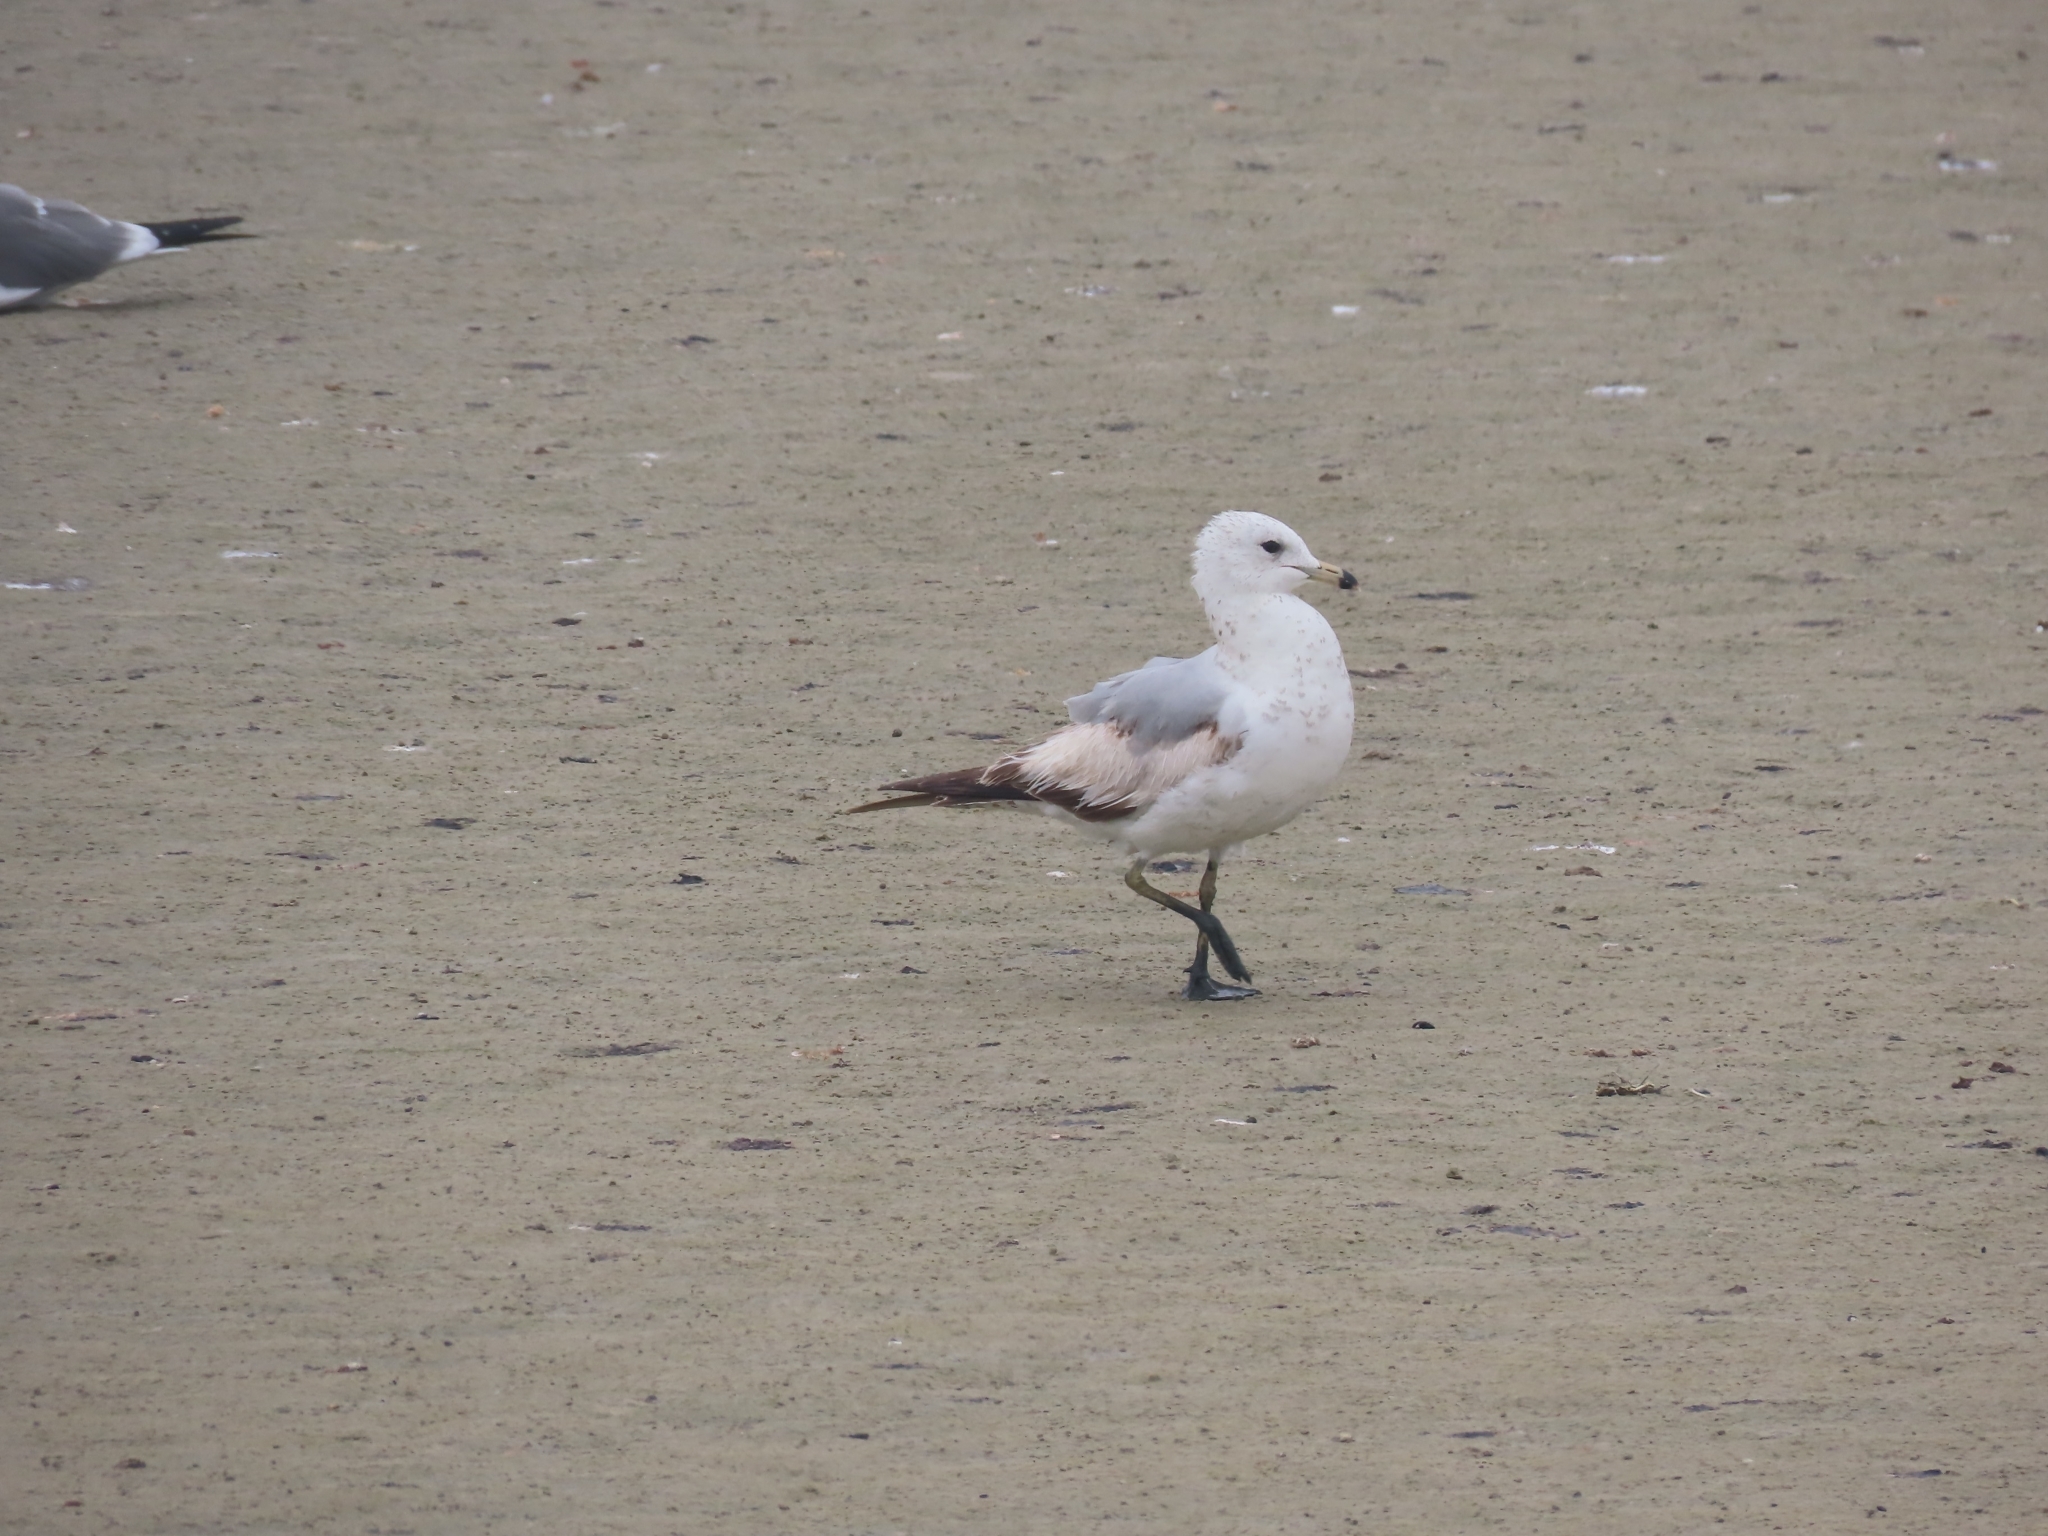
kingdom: Animalia
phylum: Chordata
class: Aves
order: Charadriiformes
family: Laridae
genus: Larus
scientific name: Larus delawarensis
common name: Ring-billed gull
